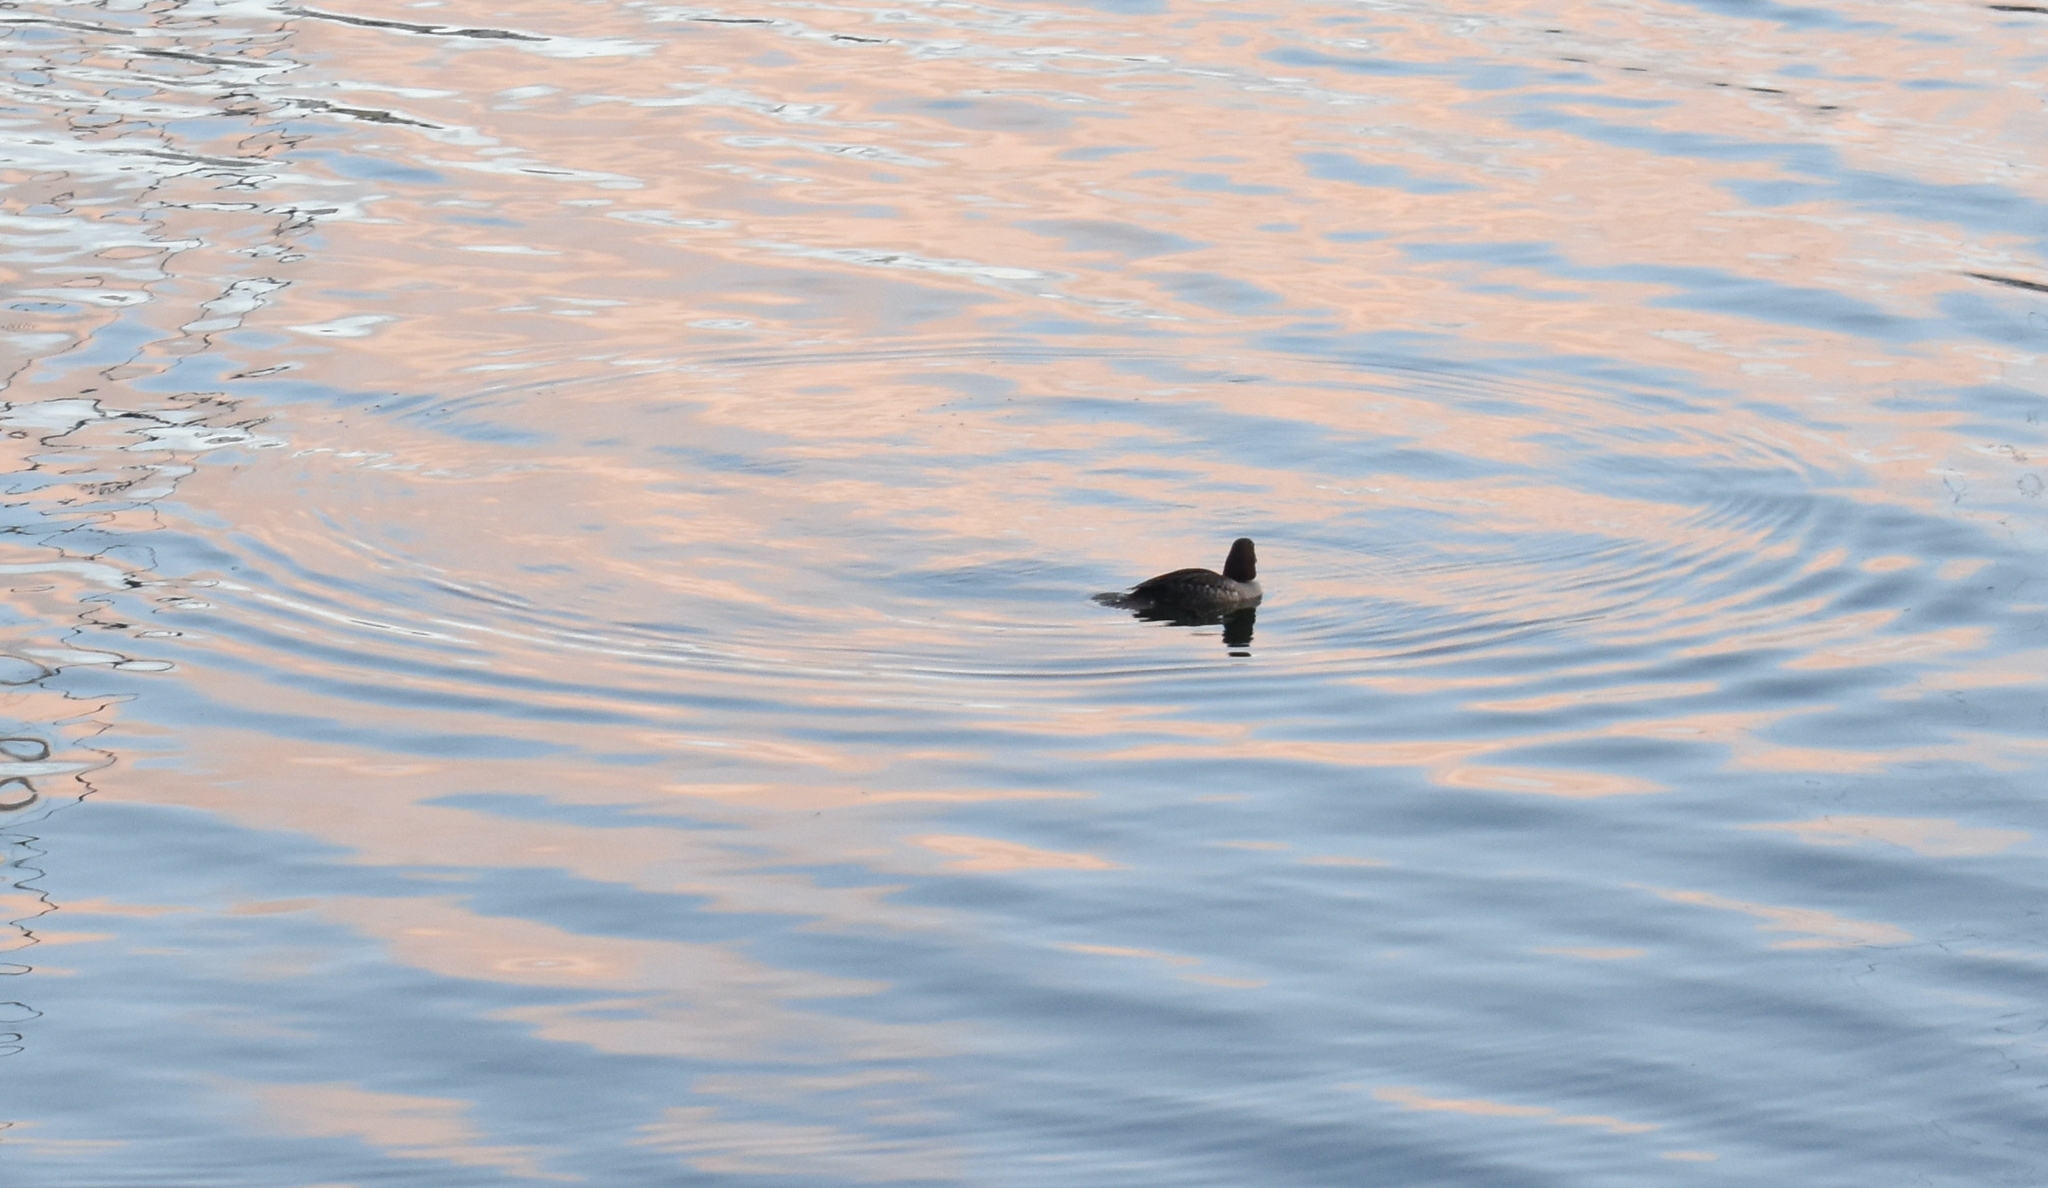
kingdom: Animalia
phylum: Chordata
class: Aves
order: Anseriformes
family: Anatidae
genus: Bucephala
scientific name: Bucephala clangula
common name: Common goldeneye
